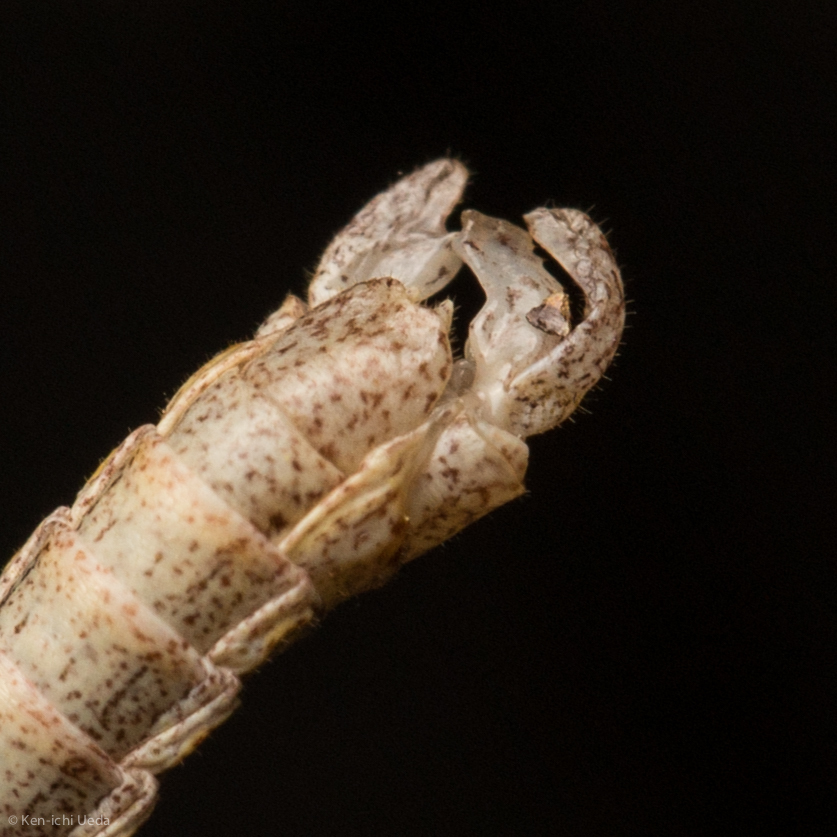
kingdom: Animalia
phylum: Arthropoda
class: Insecta
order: Phasmida
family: Timematidae
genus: Timema
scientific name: Timema boharti
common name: Bohart's timema
